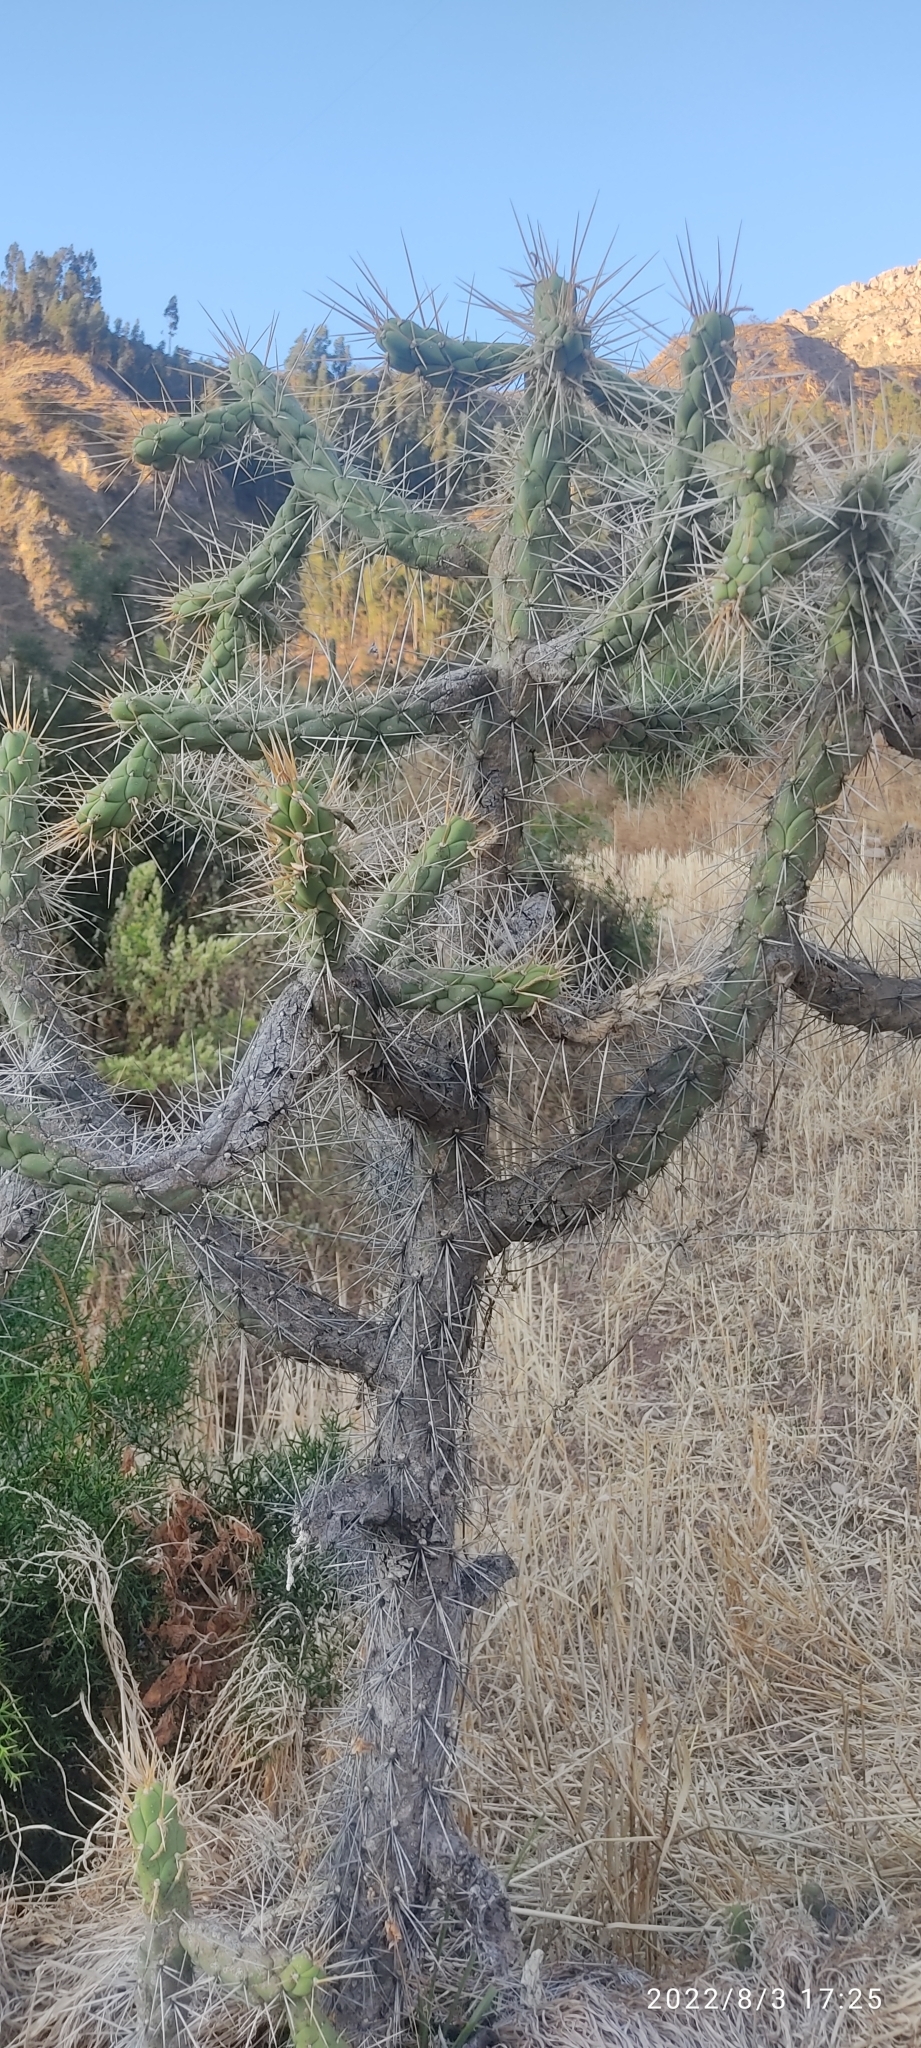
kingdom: Plantae
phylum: Tracheophyta
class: Magnoliopsida
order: Caryophyllales
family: Cactaceae
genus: Austrocylindropuntia
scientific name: Austrocylindropuntia subulata
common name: Eve's needle cactus
